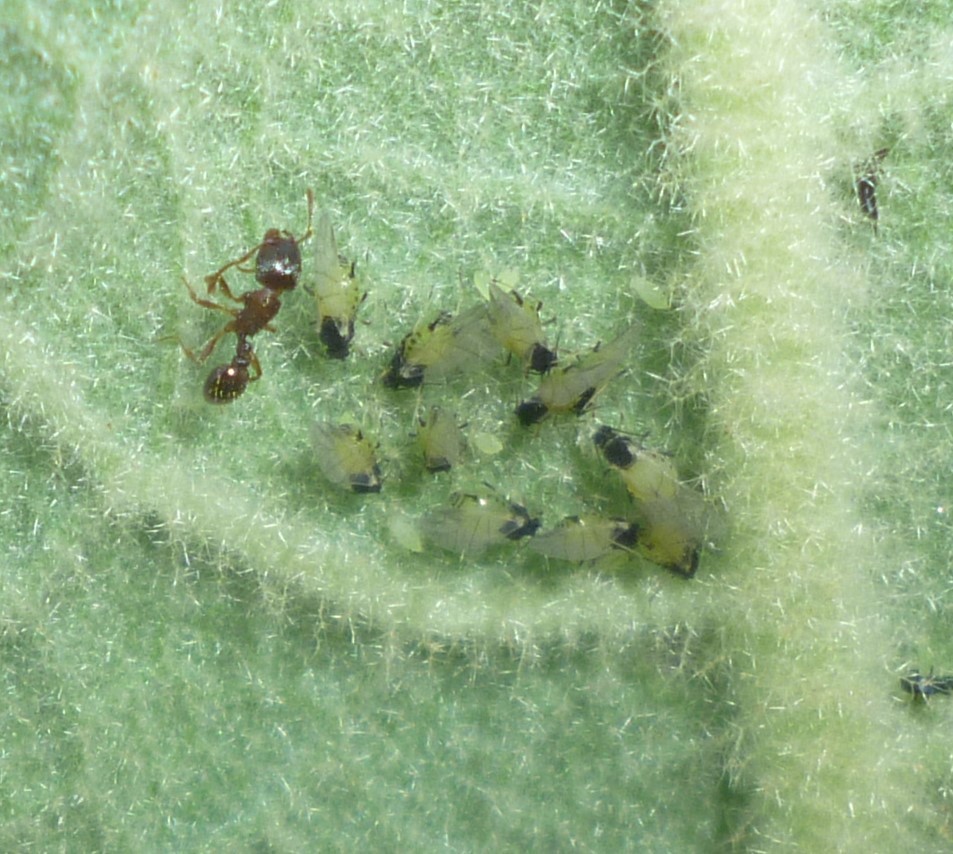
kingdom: Animalia
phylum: Arthropoda
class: Insecta
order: Hemiptera
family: Aphididae
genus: Aphis
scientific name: Aphis verbasci
